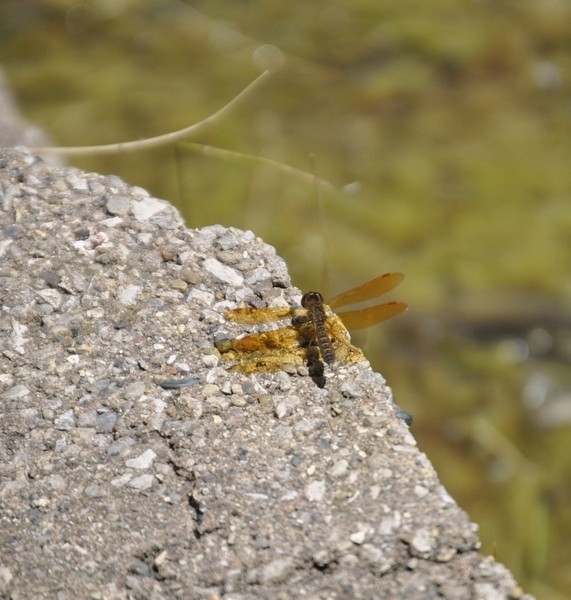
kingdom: Animalia
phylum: Arthropoda
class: Insecta
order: Odonata
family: Libellulidae
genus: Perithemis
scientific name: Perithemis tenera
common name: Eastern amberwing
